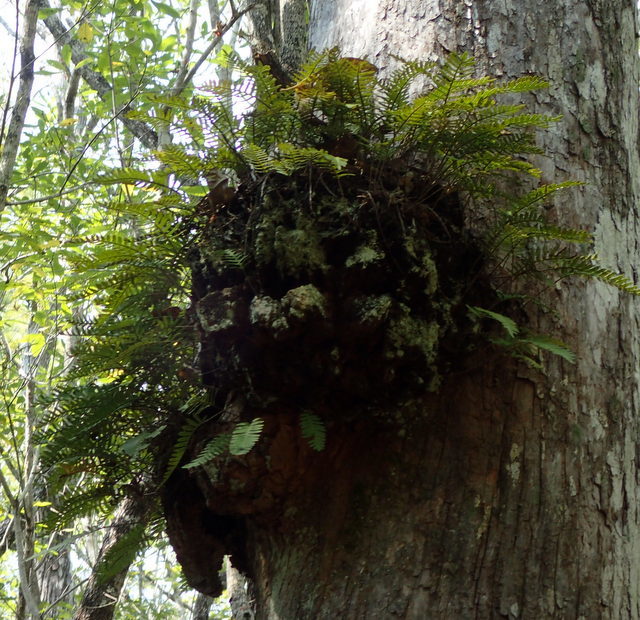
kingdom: Plantae
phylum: Tracheophyta
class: Polypodiopsida
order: Polypodiales
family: Polypodiaceae
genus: Pleopeltis
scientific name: Pleopeltis michauxiana
